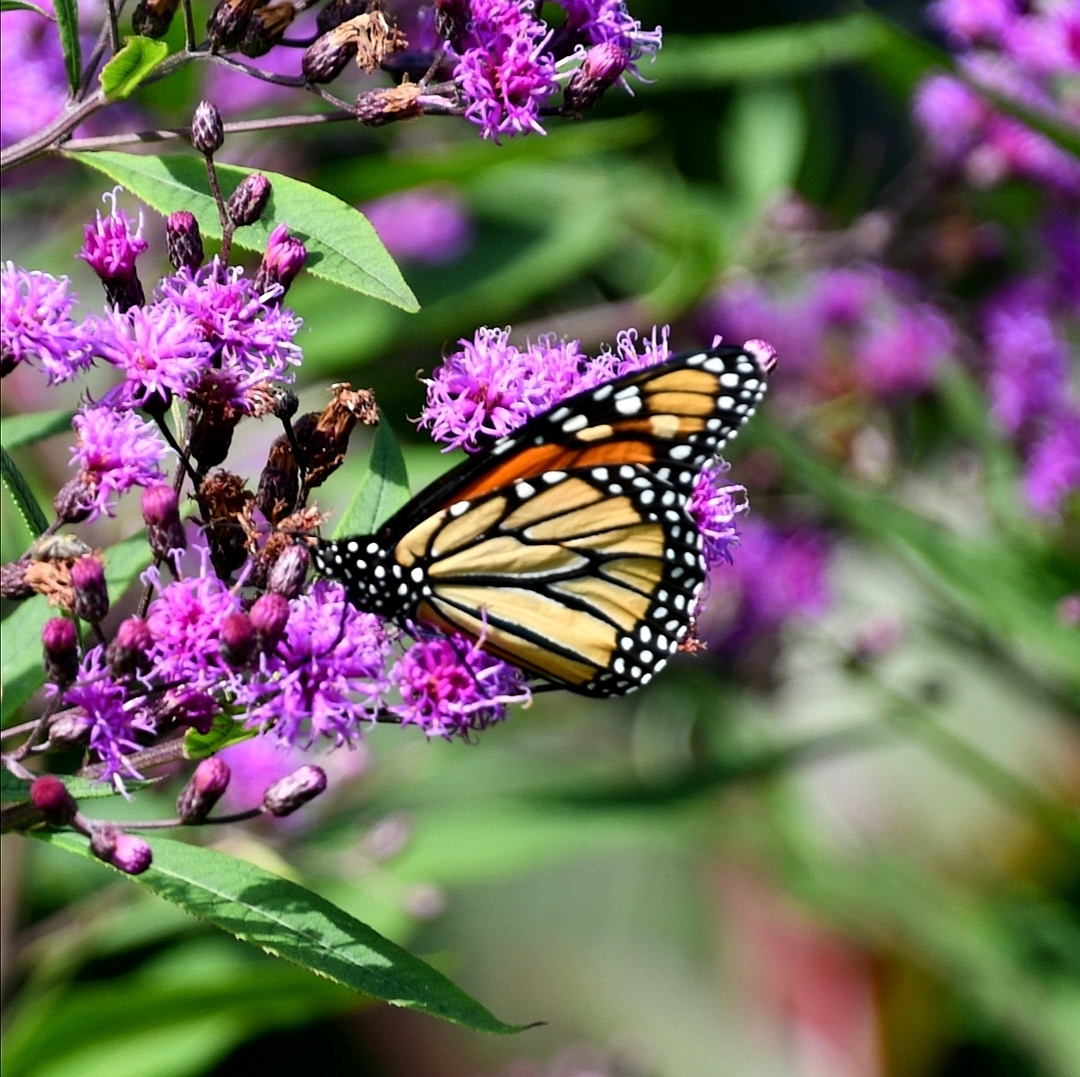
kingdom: Animalia
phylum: Arthropoda
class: Insecta
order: Lepidoptera
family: Nymphalidae
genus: Danaus
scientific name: Danaus plexippus
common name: Monarch
